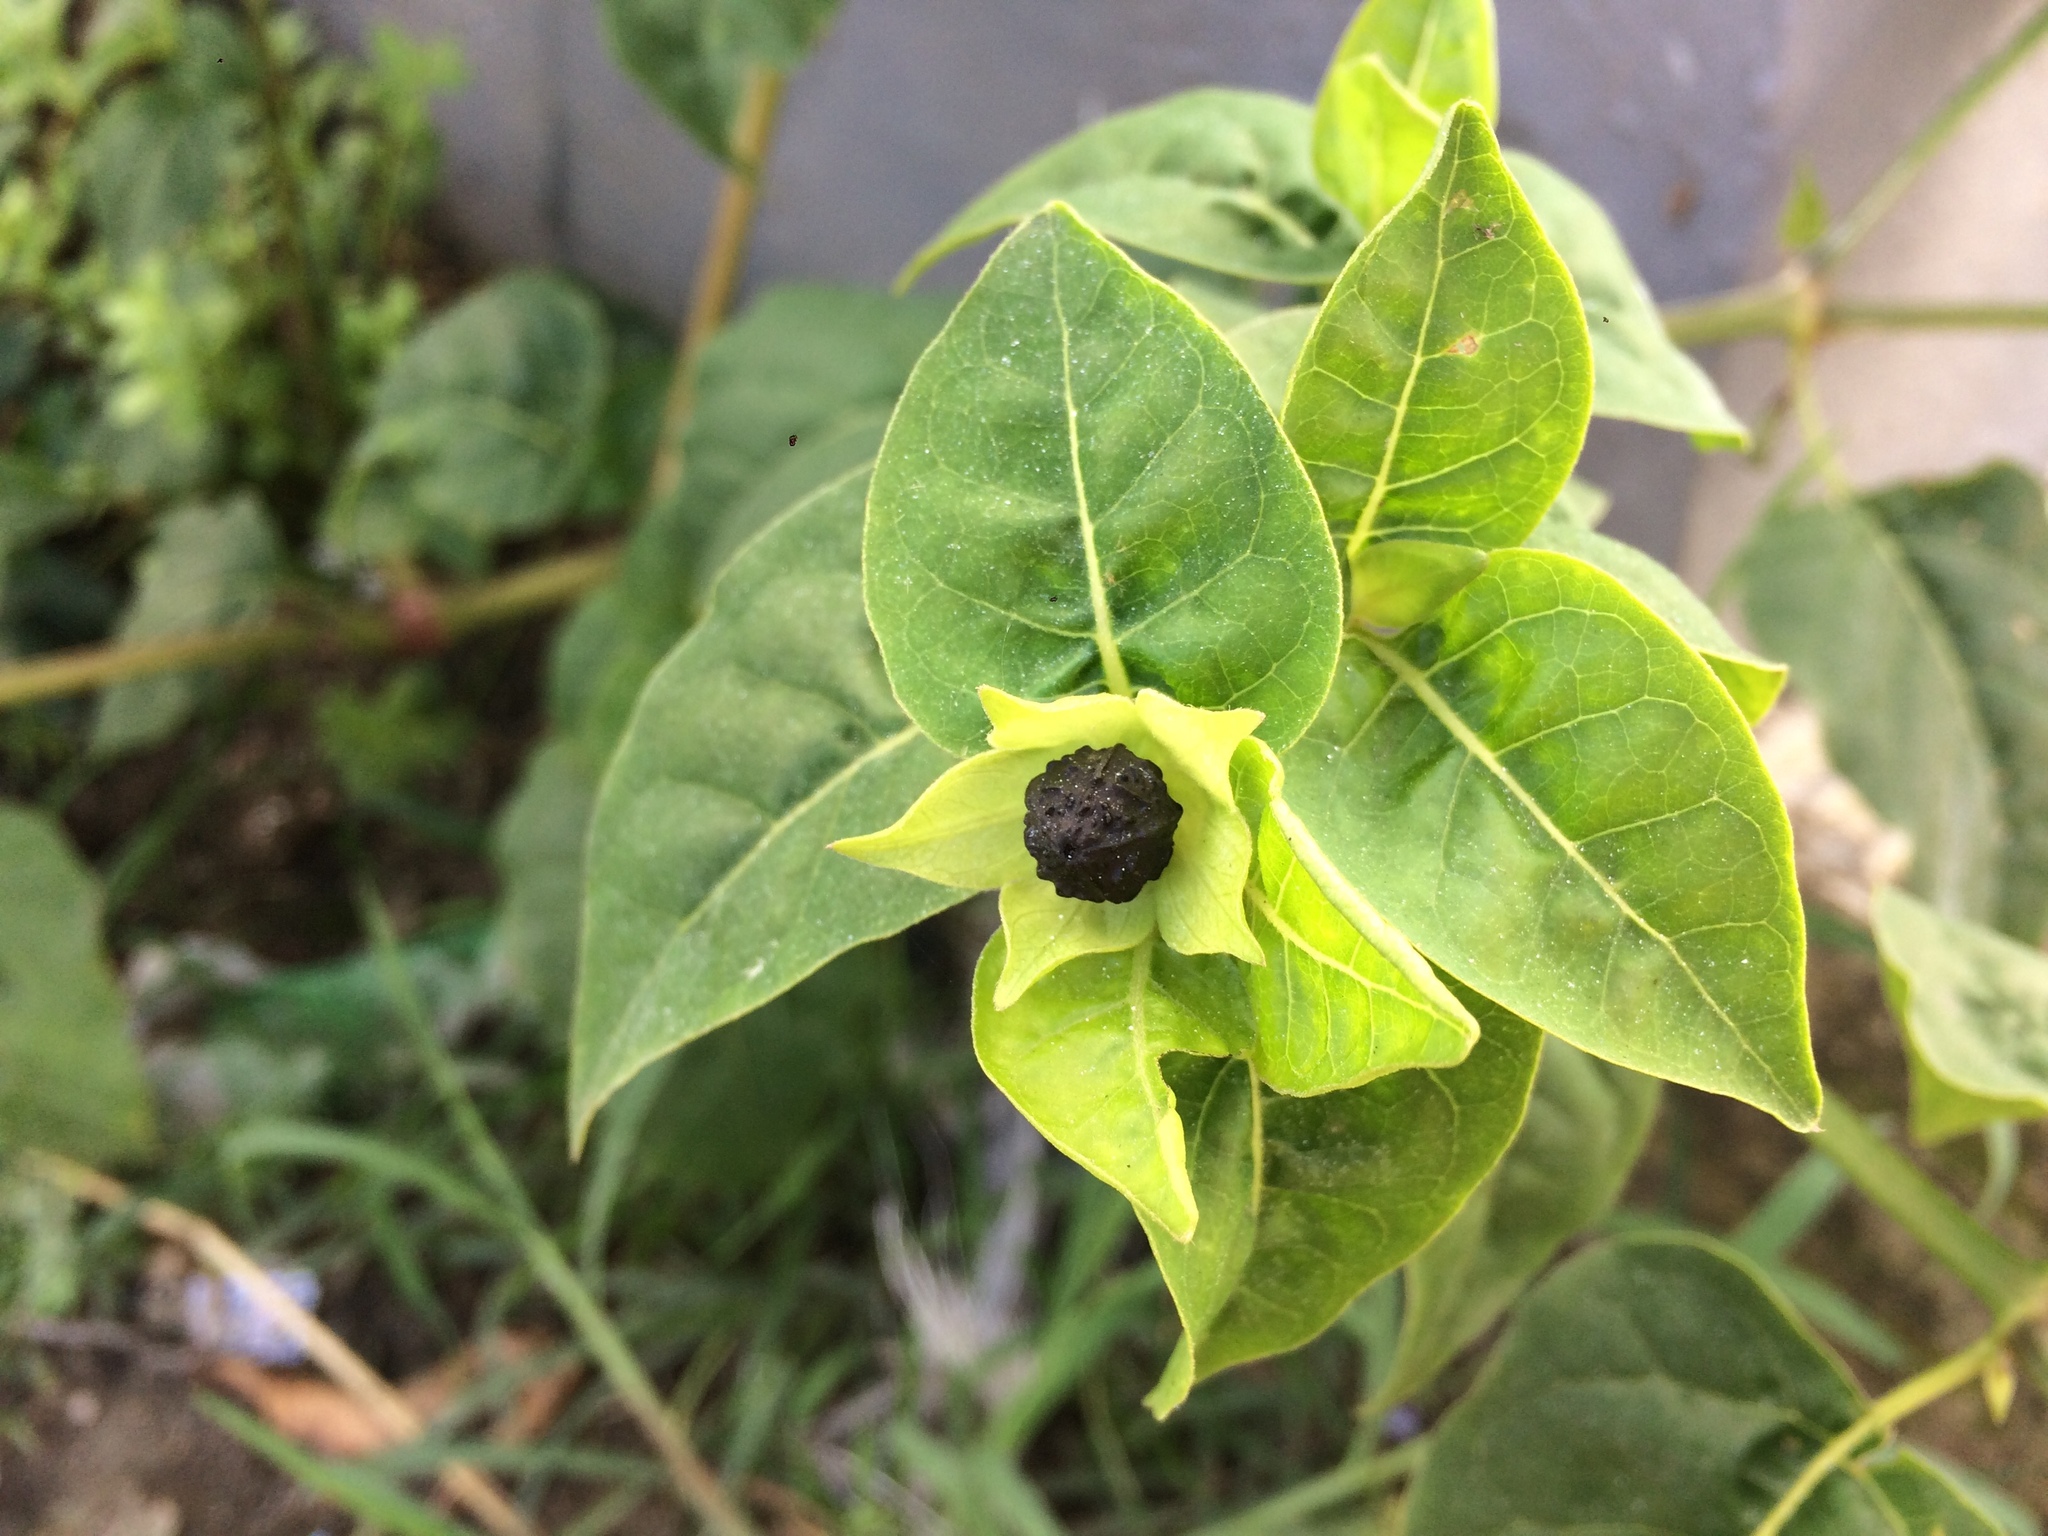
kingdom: Plantae
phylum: Tracheophyta
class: Magnoliopsida
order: Caryophyllales
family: Nyctaginaceae
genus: Mirabilis
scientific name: Mirabilis jalapa
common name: Marvel-of-peru
